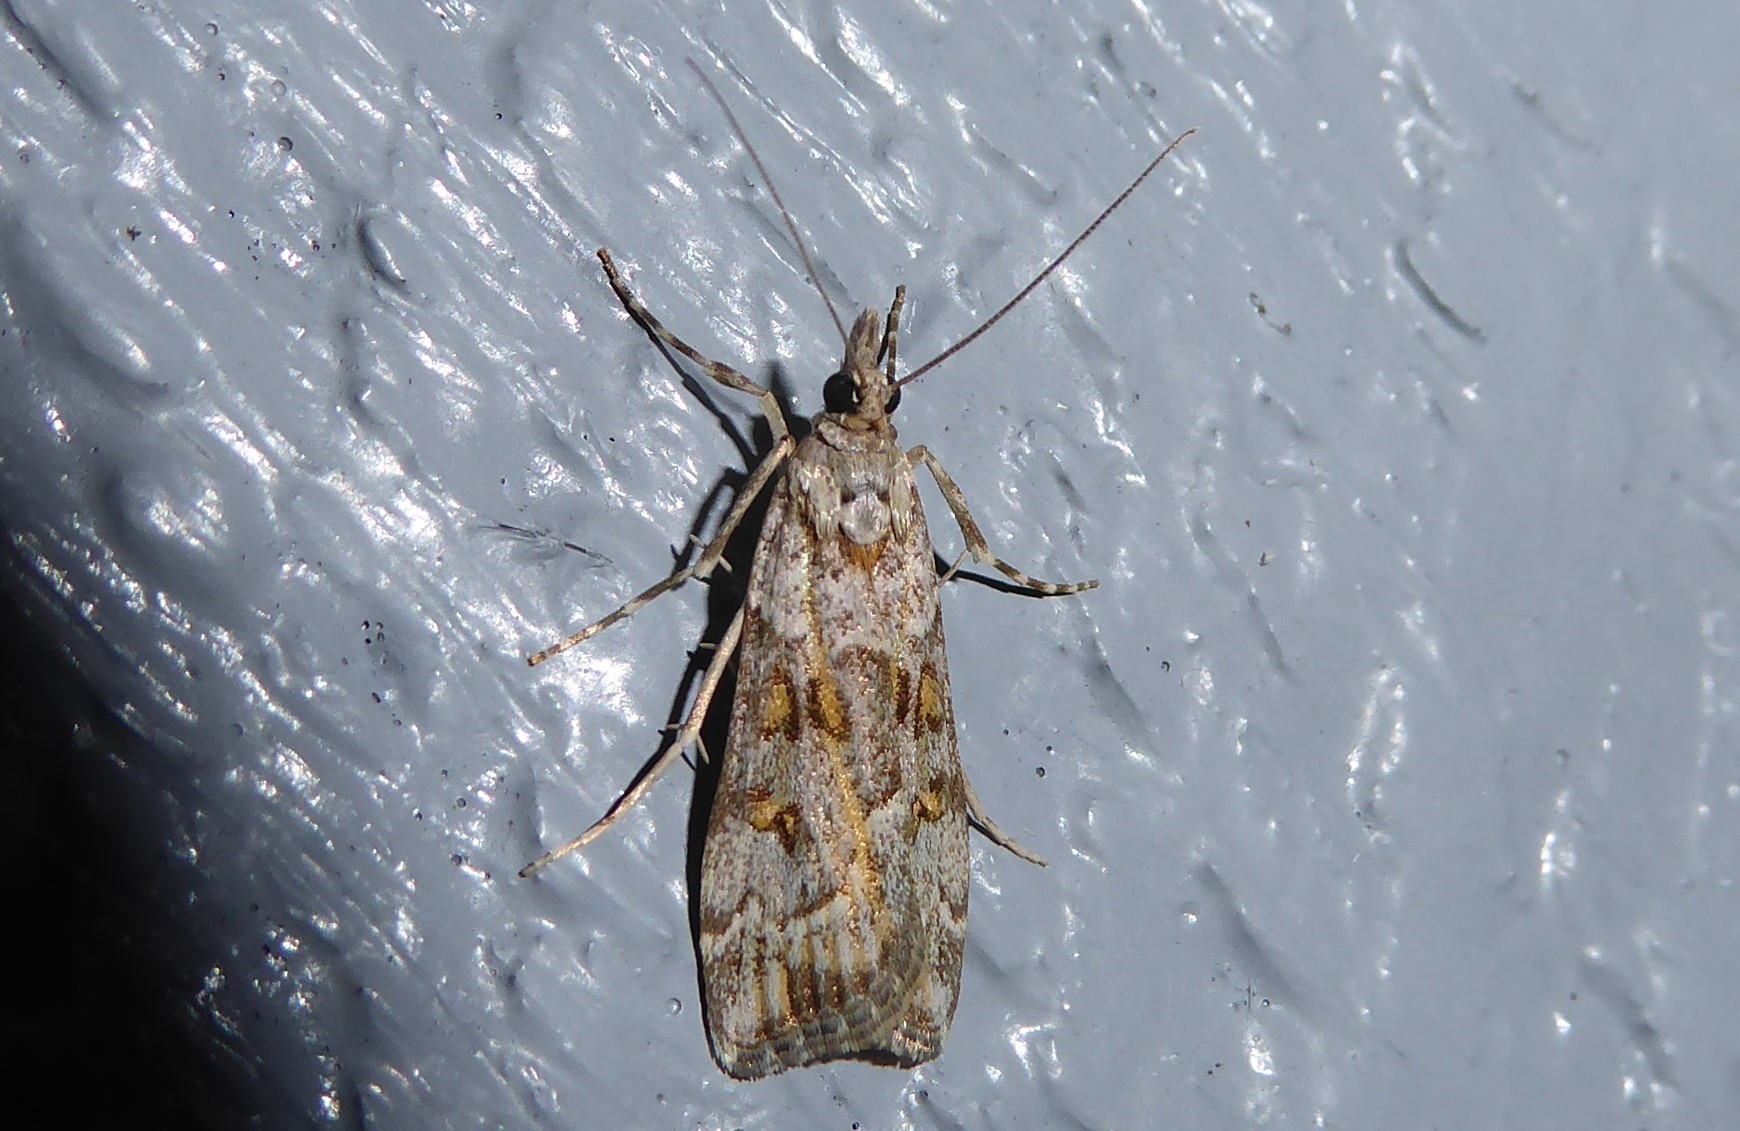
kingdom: Animalia
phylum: Arthropoda
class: Insecta
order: Lepidoptera
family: Crambidae
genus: Eudonia
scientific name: Eudonia diphtheralis
